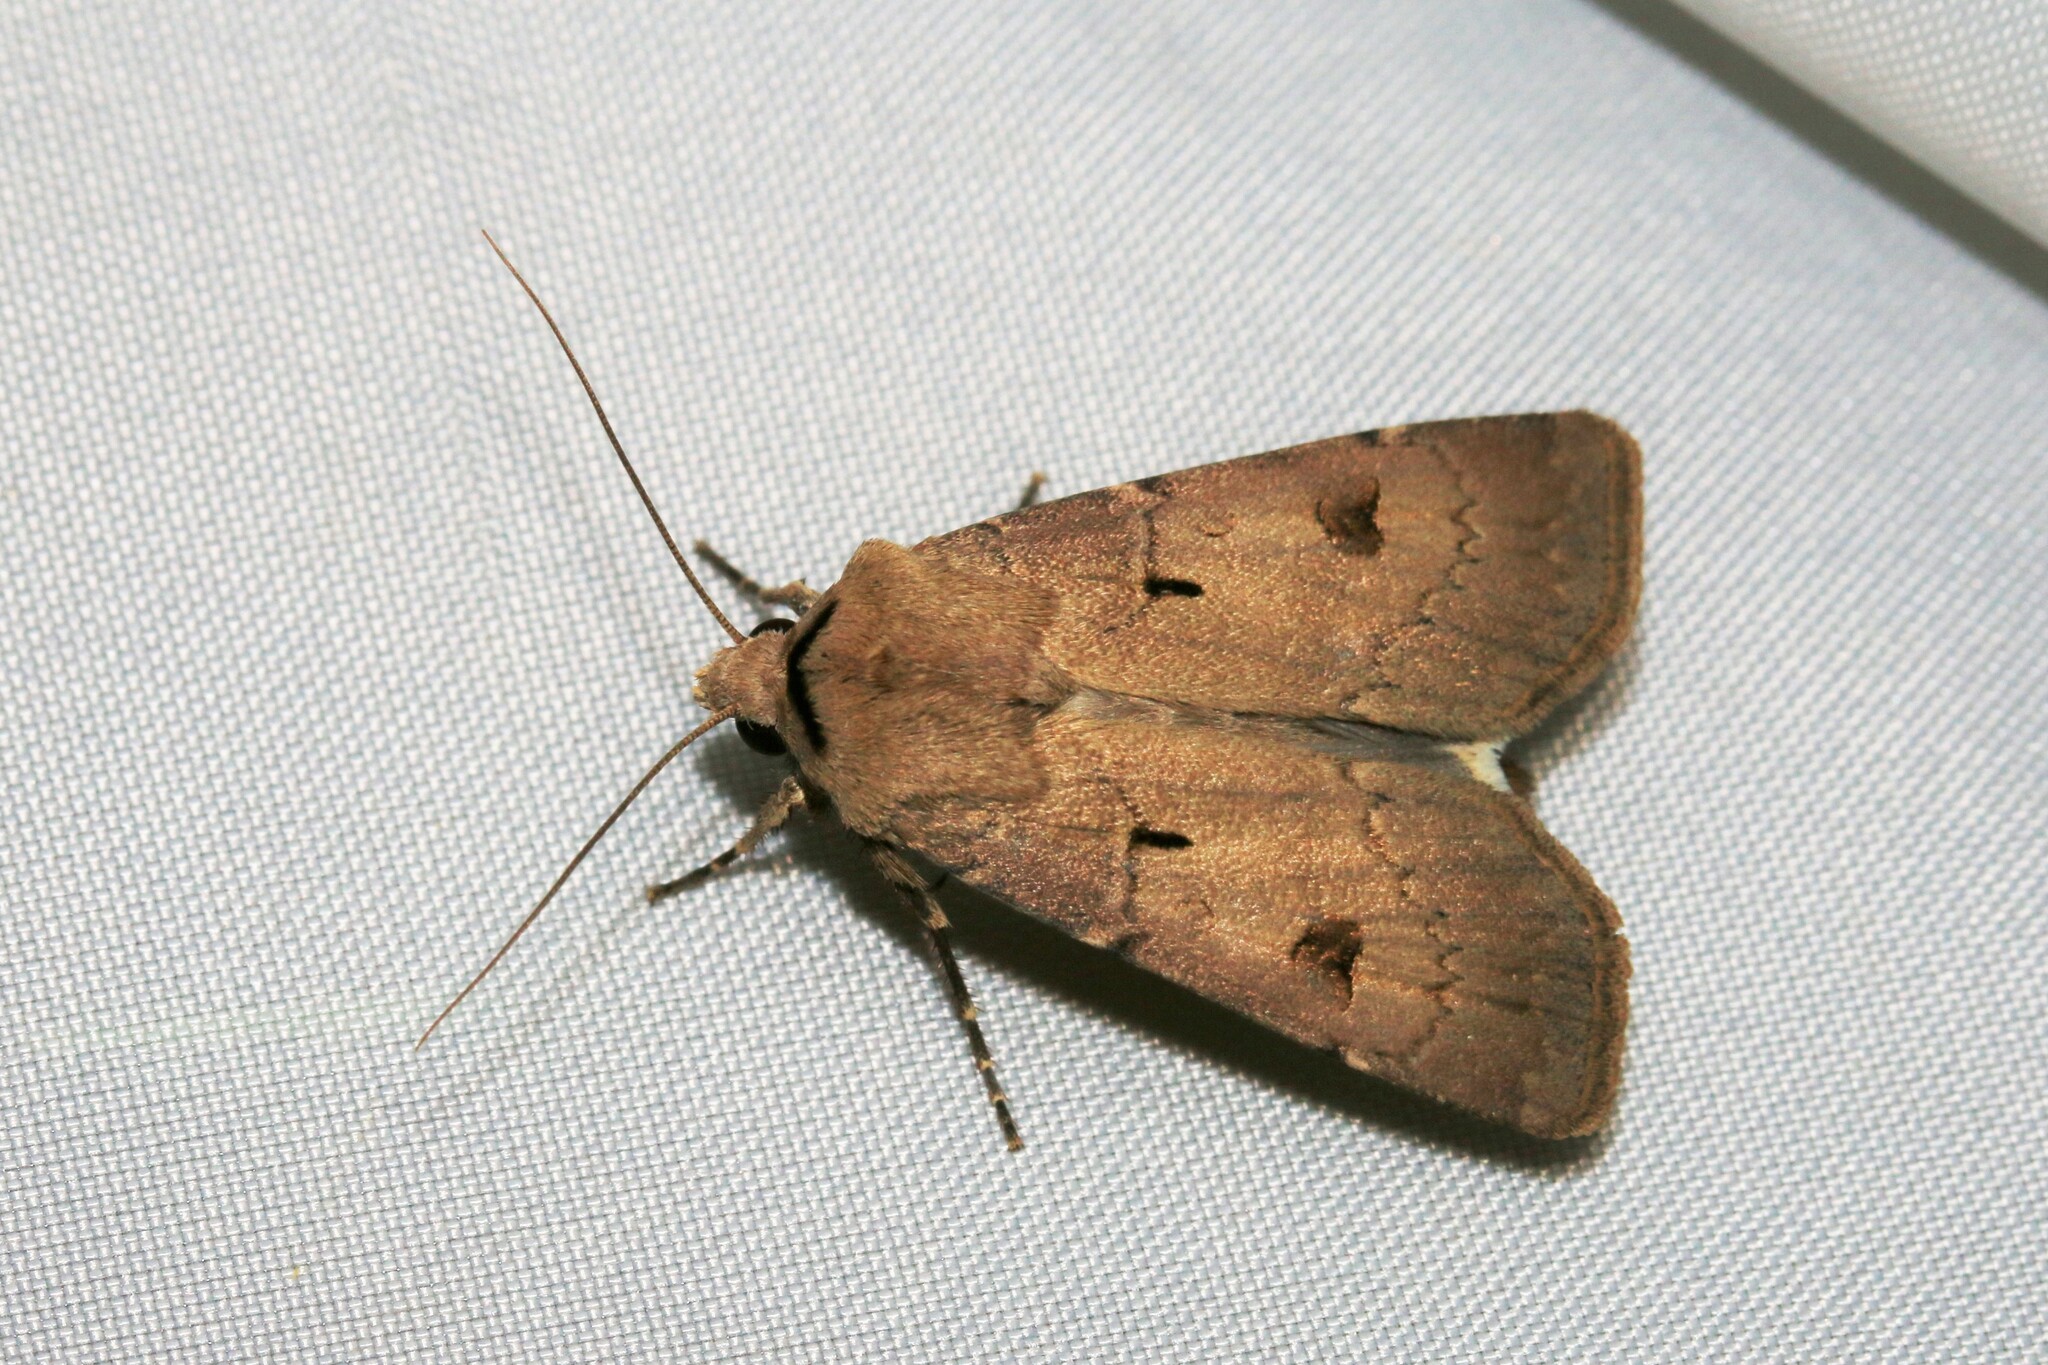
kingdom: Animalia
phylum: Arthropoda
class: Insecta
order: Lepidoptera
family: Noctuidae
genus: Agrotis
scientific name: Agrotis exclamationis
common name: Heart and dart
